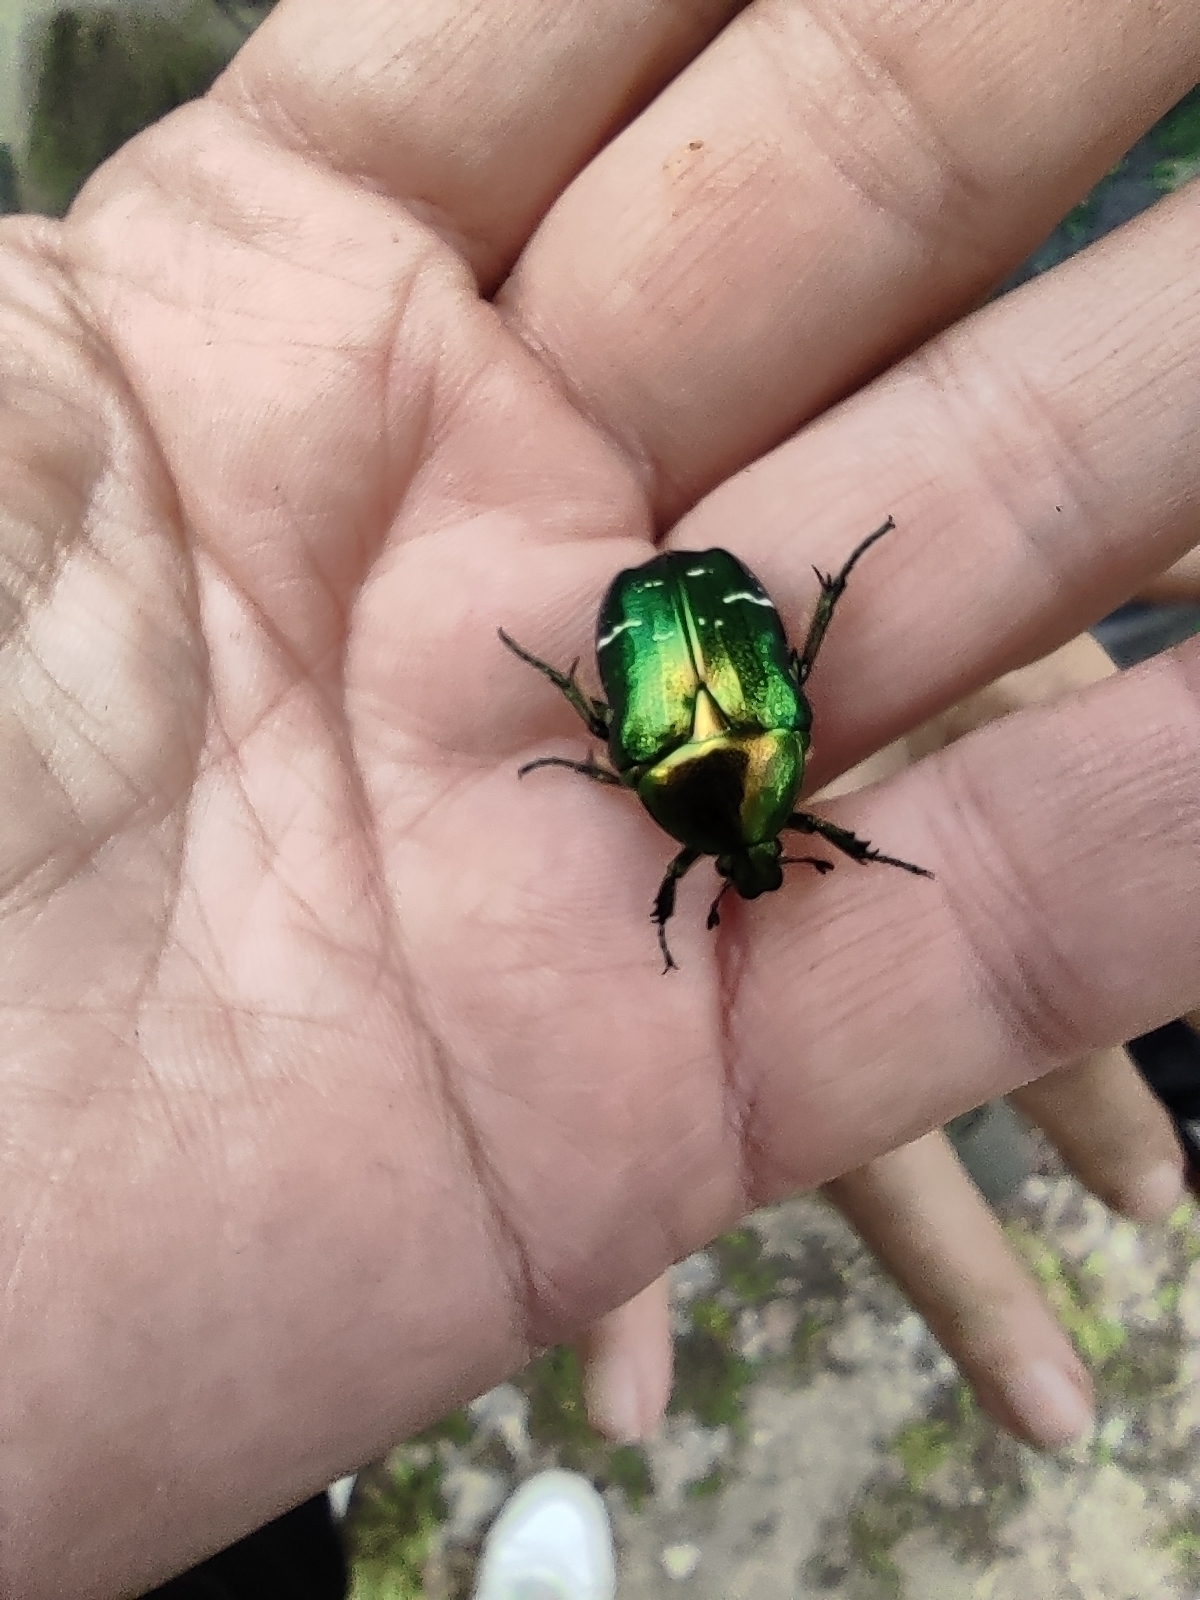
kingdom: Animalia
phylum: Arthropoda
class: Insecta
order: Coleoptera
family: Scarabaeidae
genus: Cetonia
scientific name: Cetonia aurata
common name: Rose chafer
